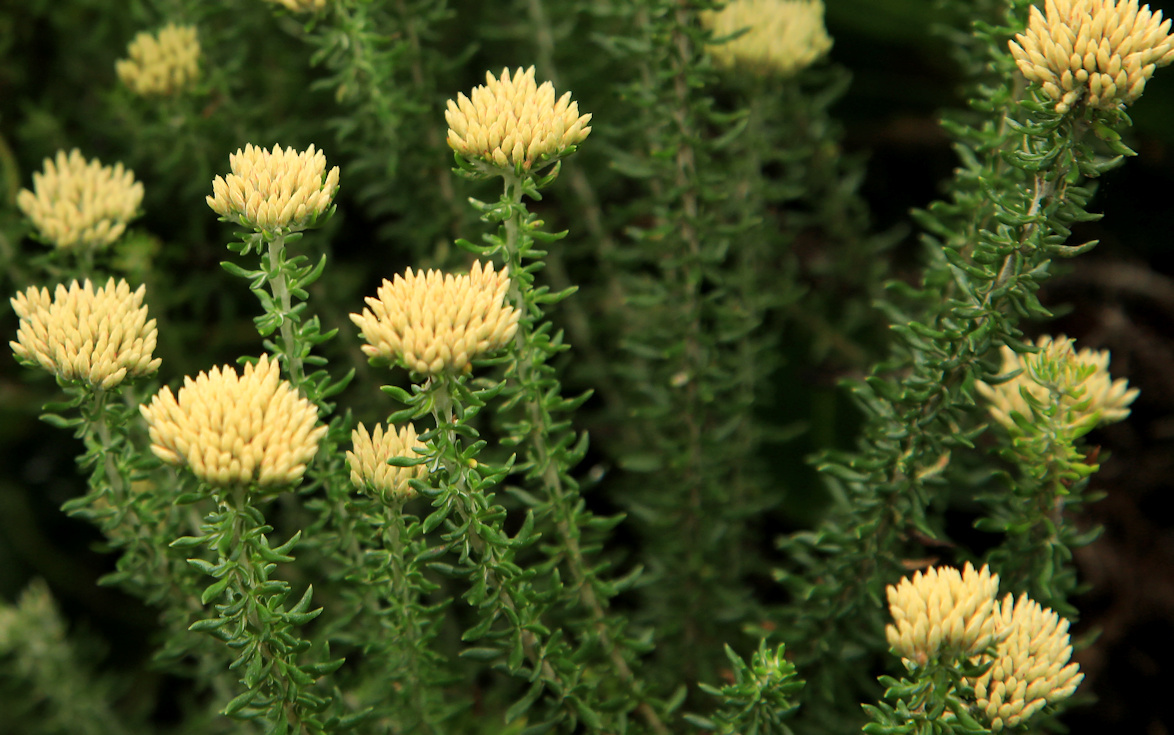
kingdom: Plantae
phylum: Tracheophyta
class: Magnoliopsida
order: Asterales
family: Asteraceae
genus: Metalasia
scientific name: Metalasia muricata
